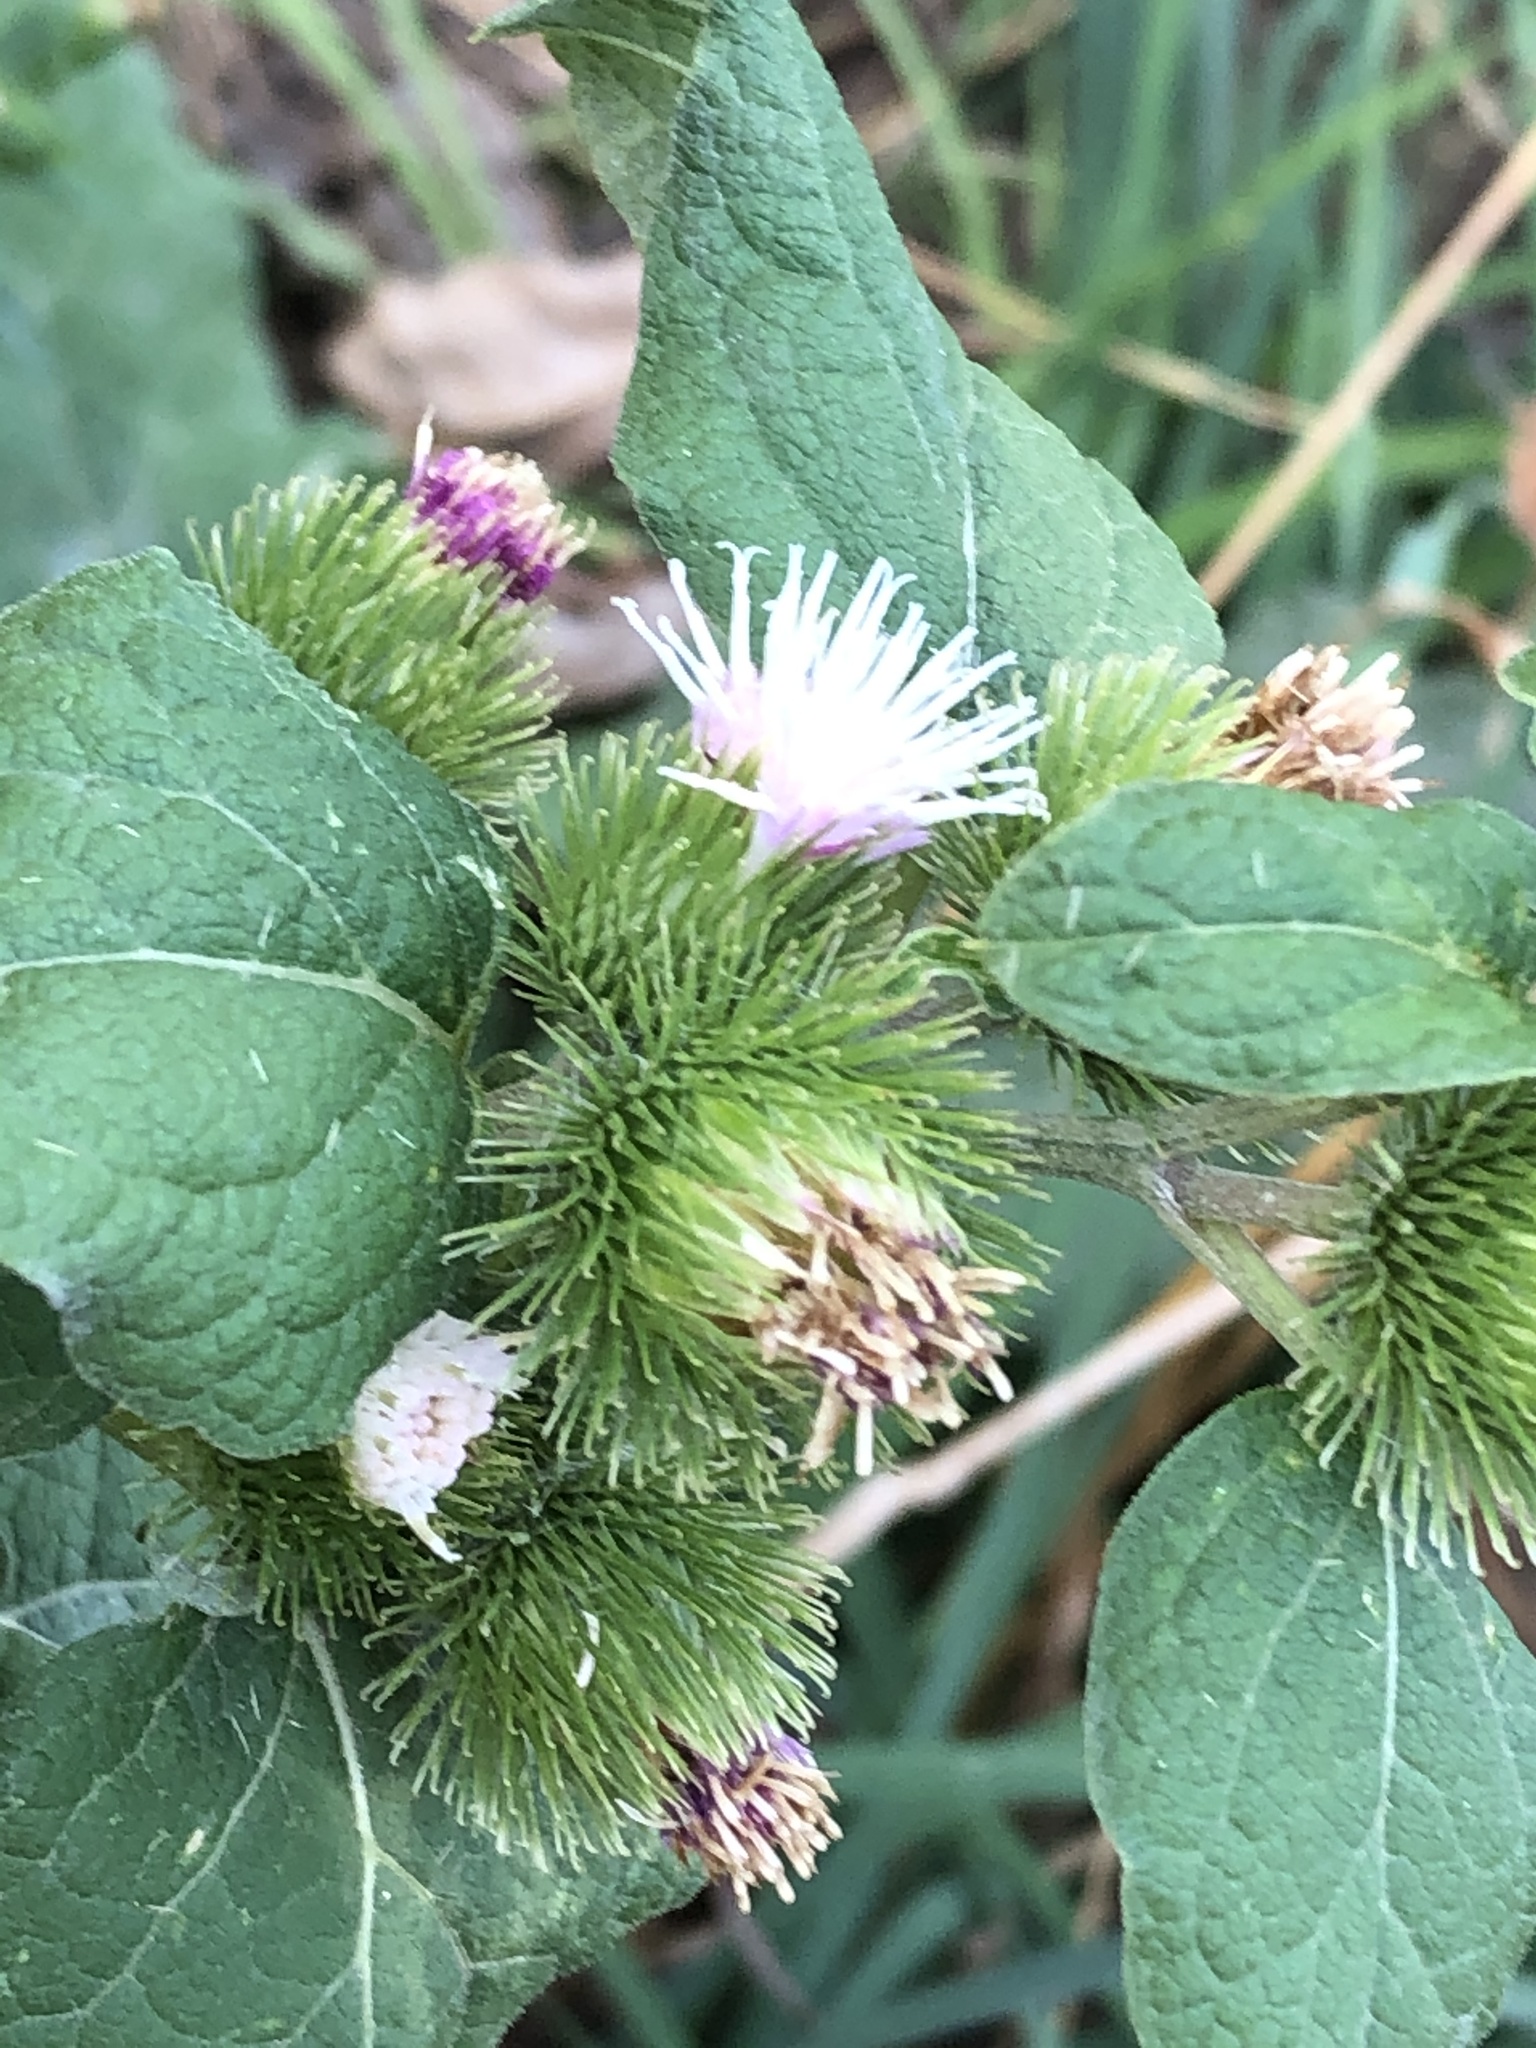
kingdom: Plantae
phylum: Tracheophyta
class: Magnoliopsida
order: Asterales
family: Asteraceae
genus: Arctium
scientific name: Arctium minus
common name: Lesser burdock
